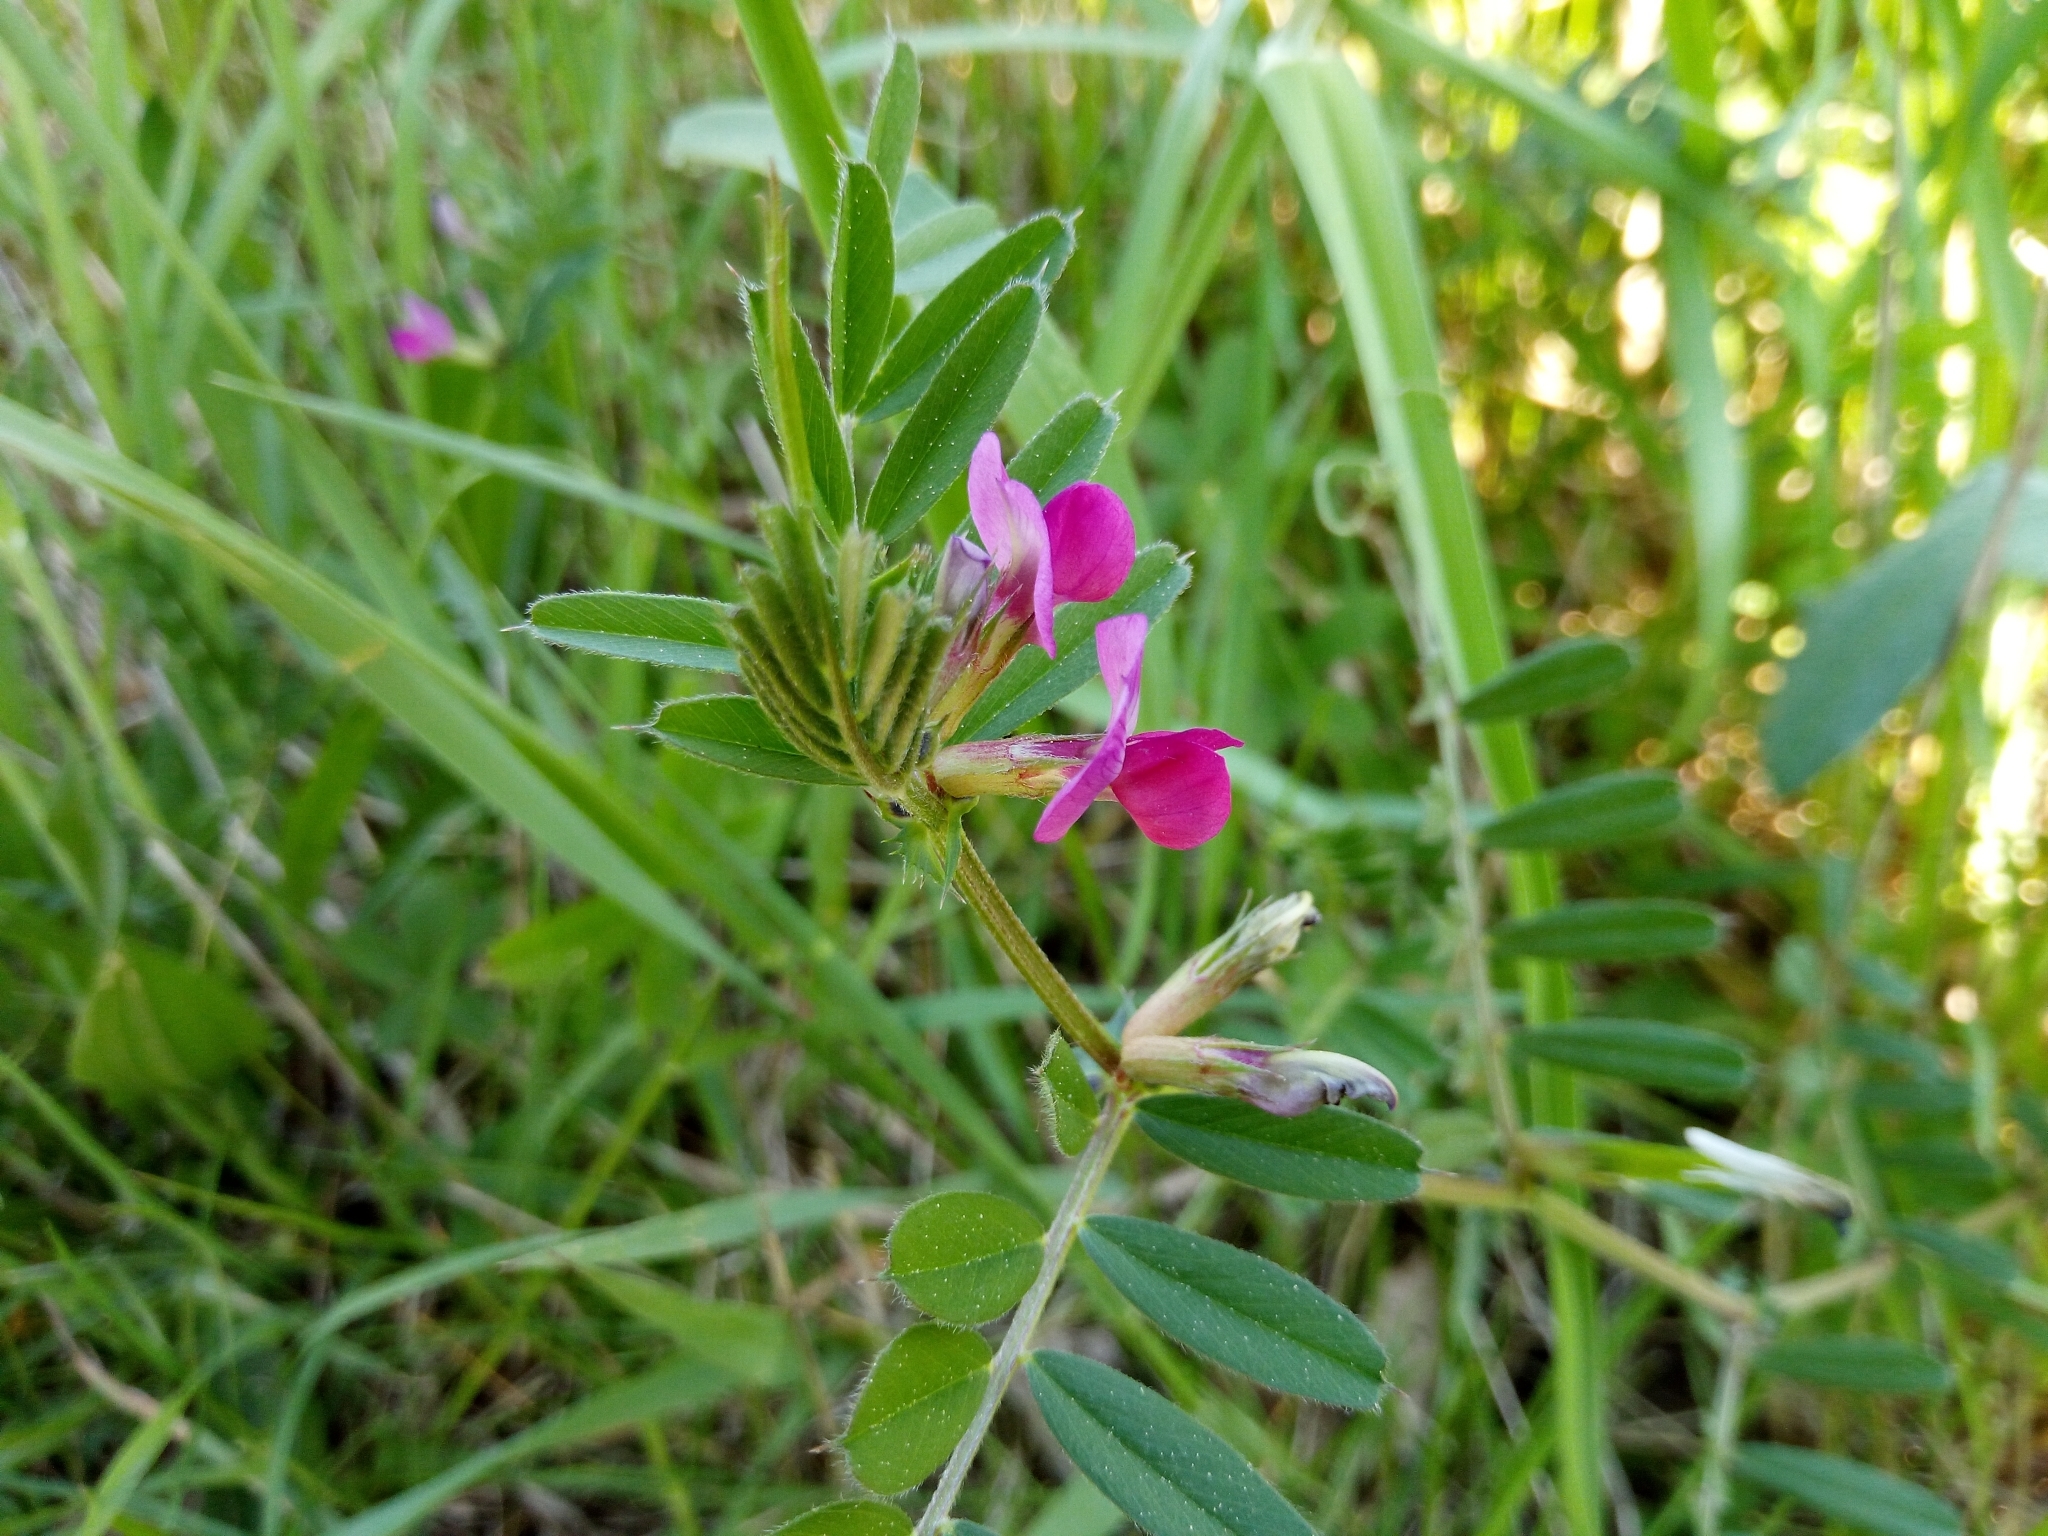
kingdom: Plantae
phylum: Tracheophyta
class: Magnoliopsida
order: Fabales
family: Fabaceae
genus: Vicia
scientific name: Vicia sativa
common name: Garden vetch
